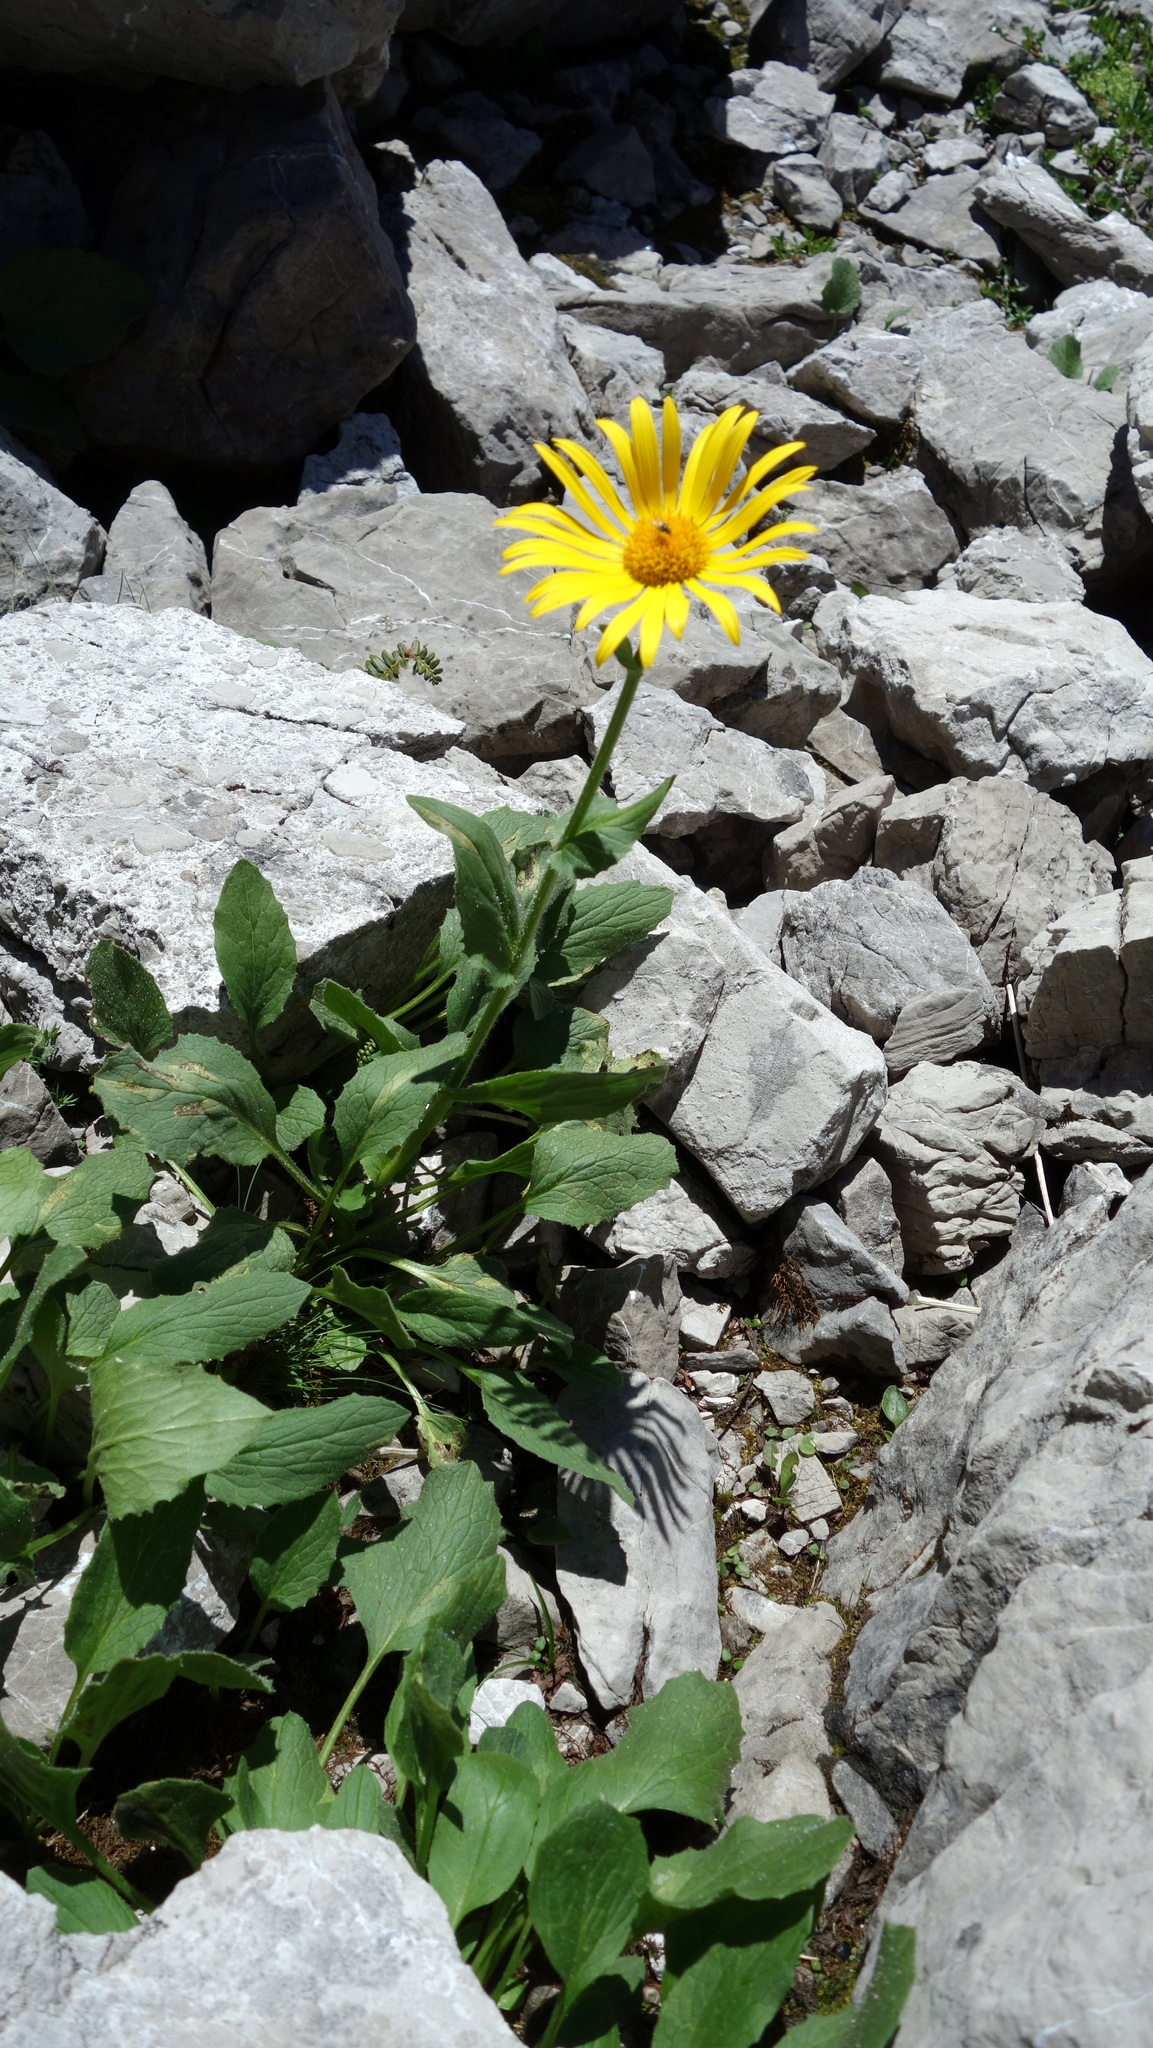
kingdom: Plantae
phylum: Tracheophyta
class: Magnoliopsida
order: Asterales
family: Asteraceae
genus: Doronicum
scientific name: Doronicum grandiflorum
